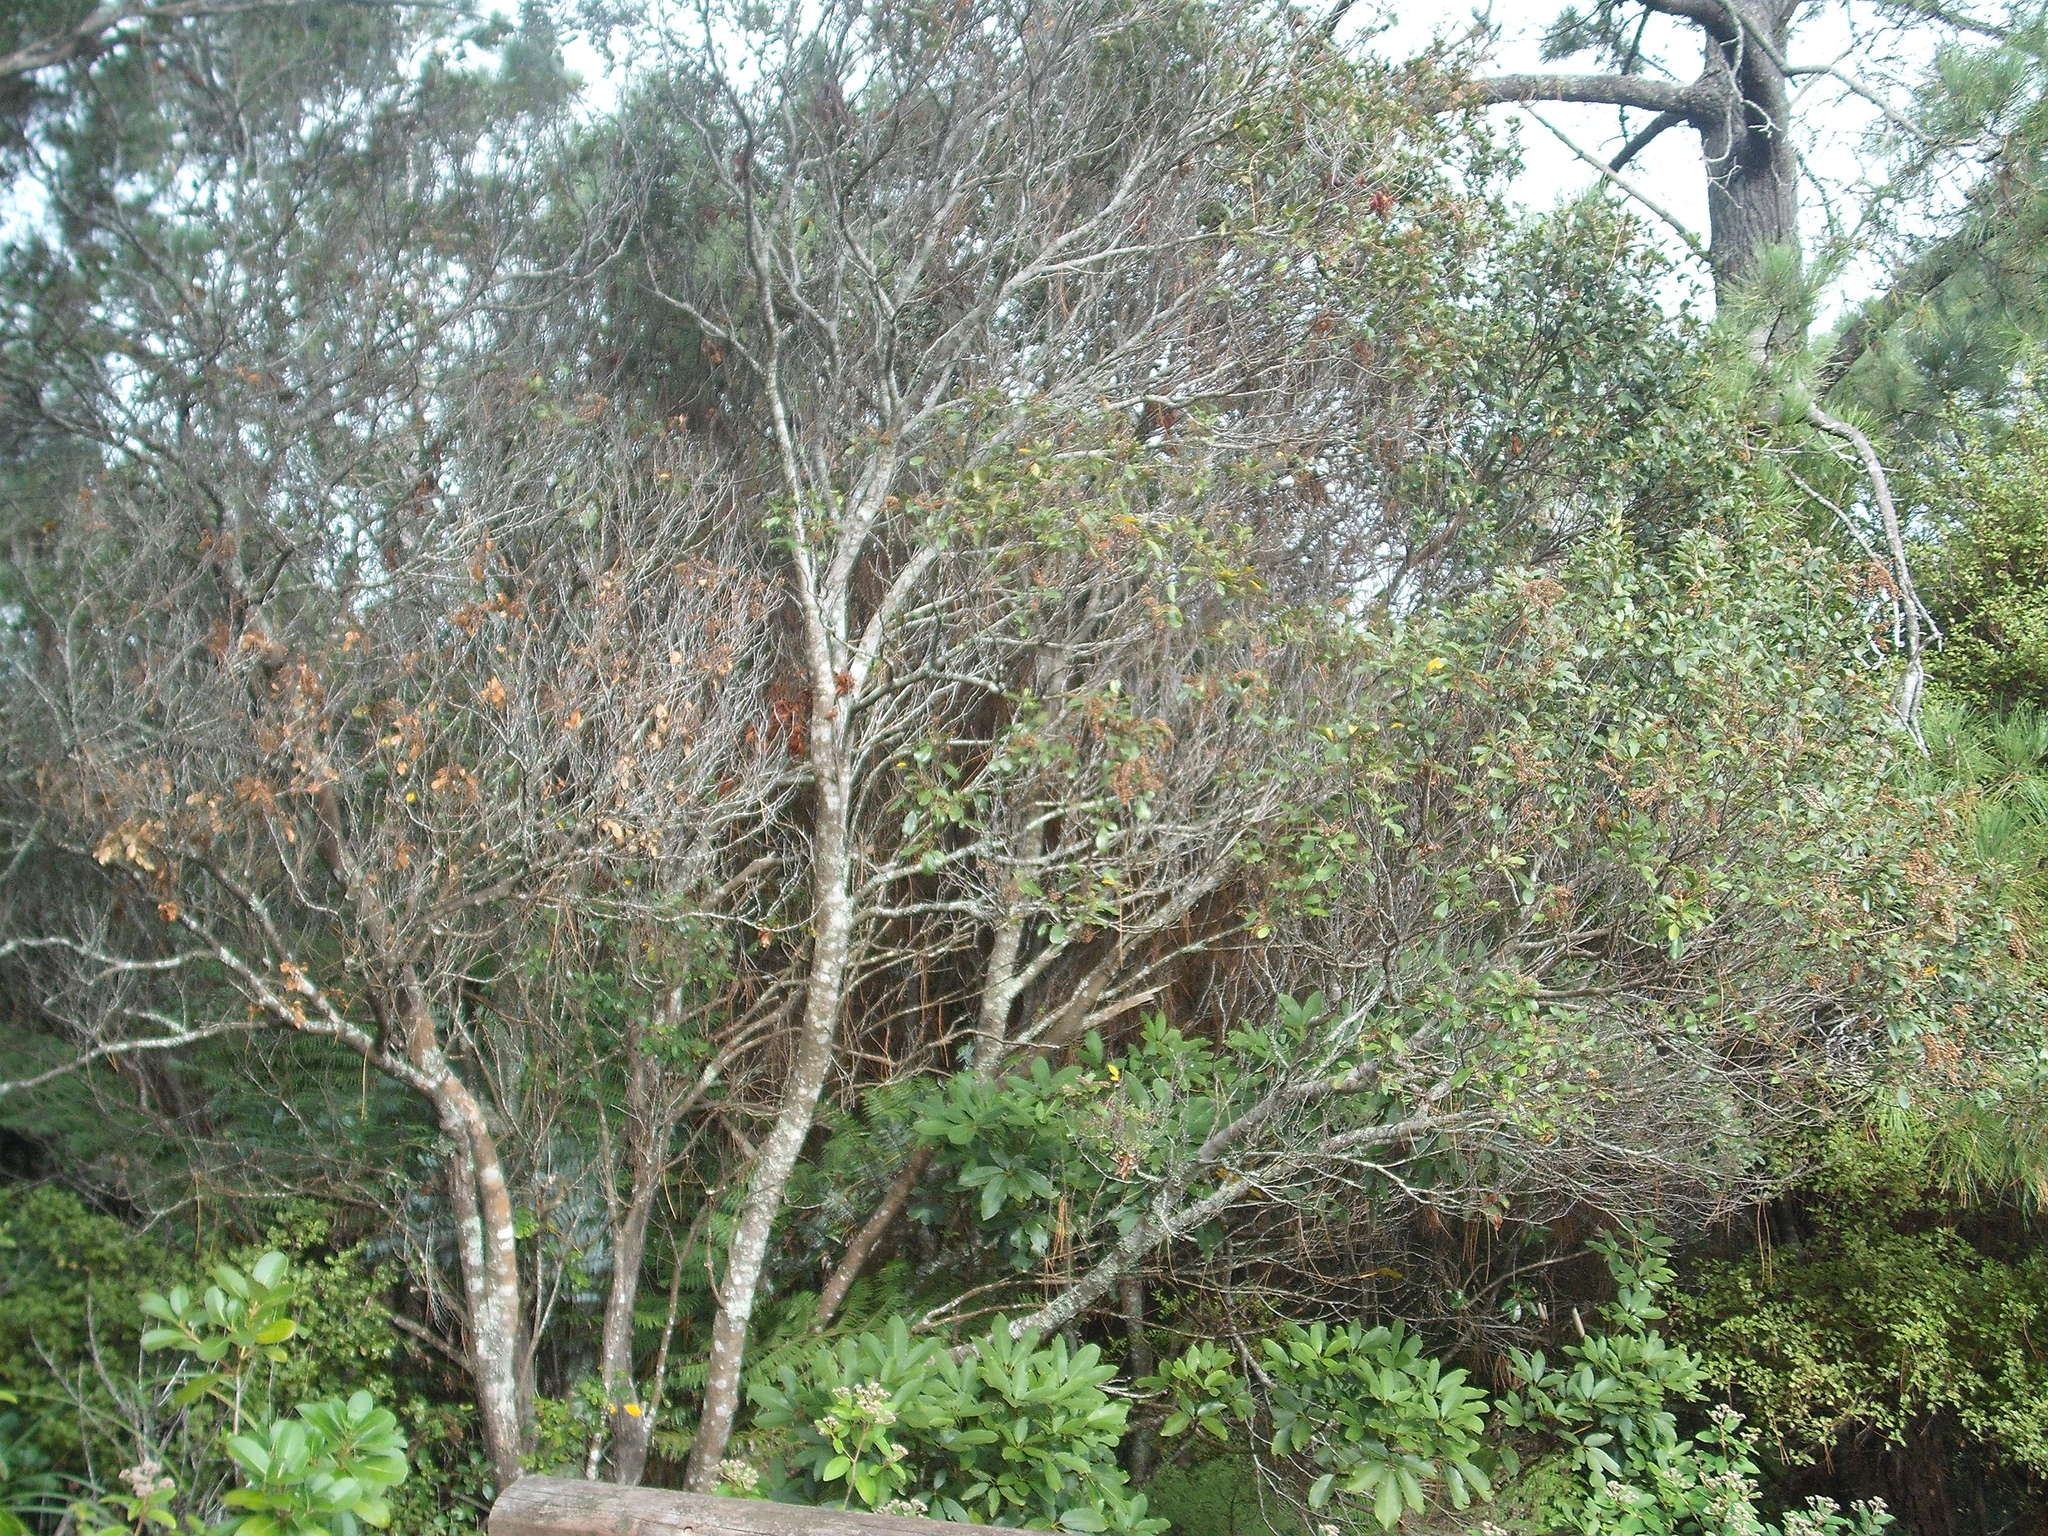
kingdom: Plantae
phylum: Tracheophyta
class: Magnoliopsida
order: Oxalidales
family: Cunoniaceae
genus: Pterophylla
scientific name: Pterophylla sylvicola
